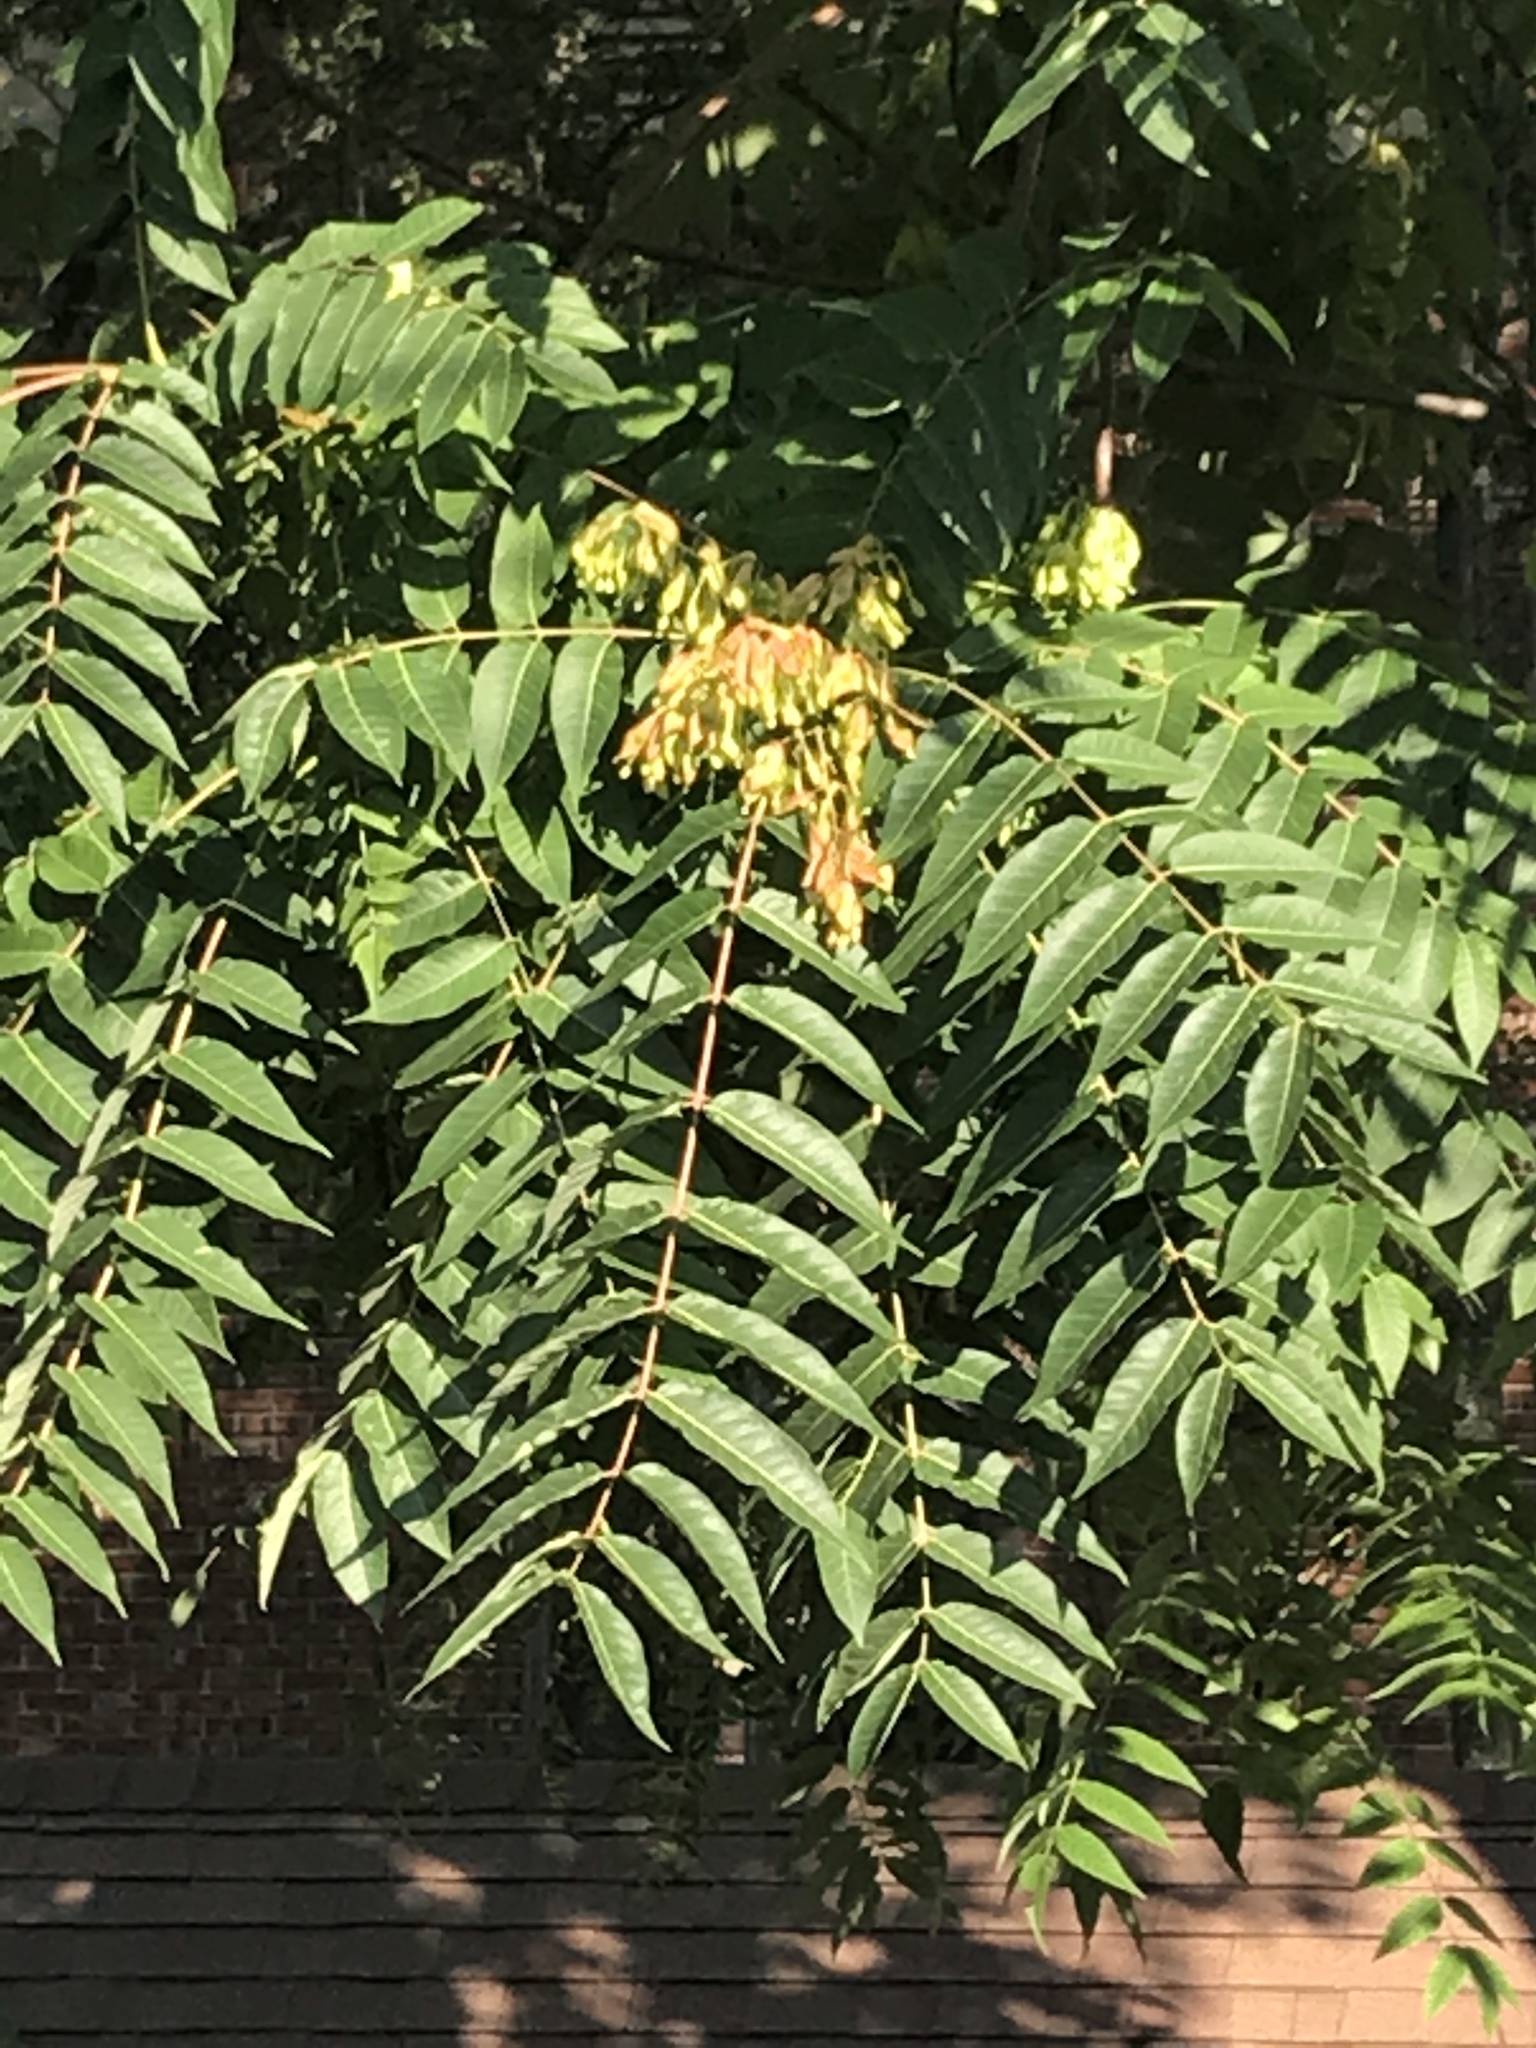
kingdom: Plantae
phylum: Tracheophyta
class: Magnoliopsida
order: Sapindales
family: Simaroubaceae
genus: Ailanthus
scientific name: Ailanthus altissima
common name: Tree-of-heaven
